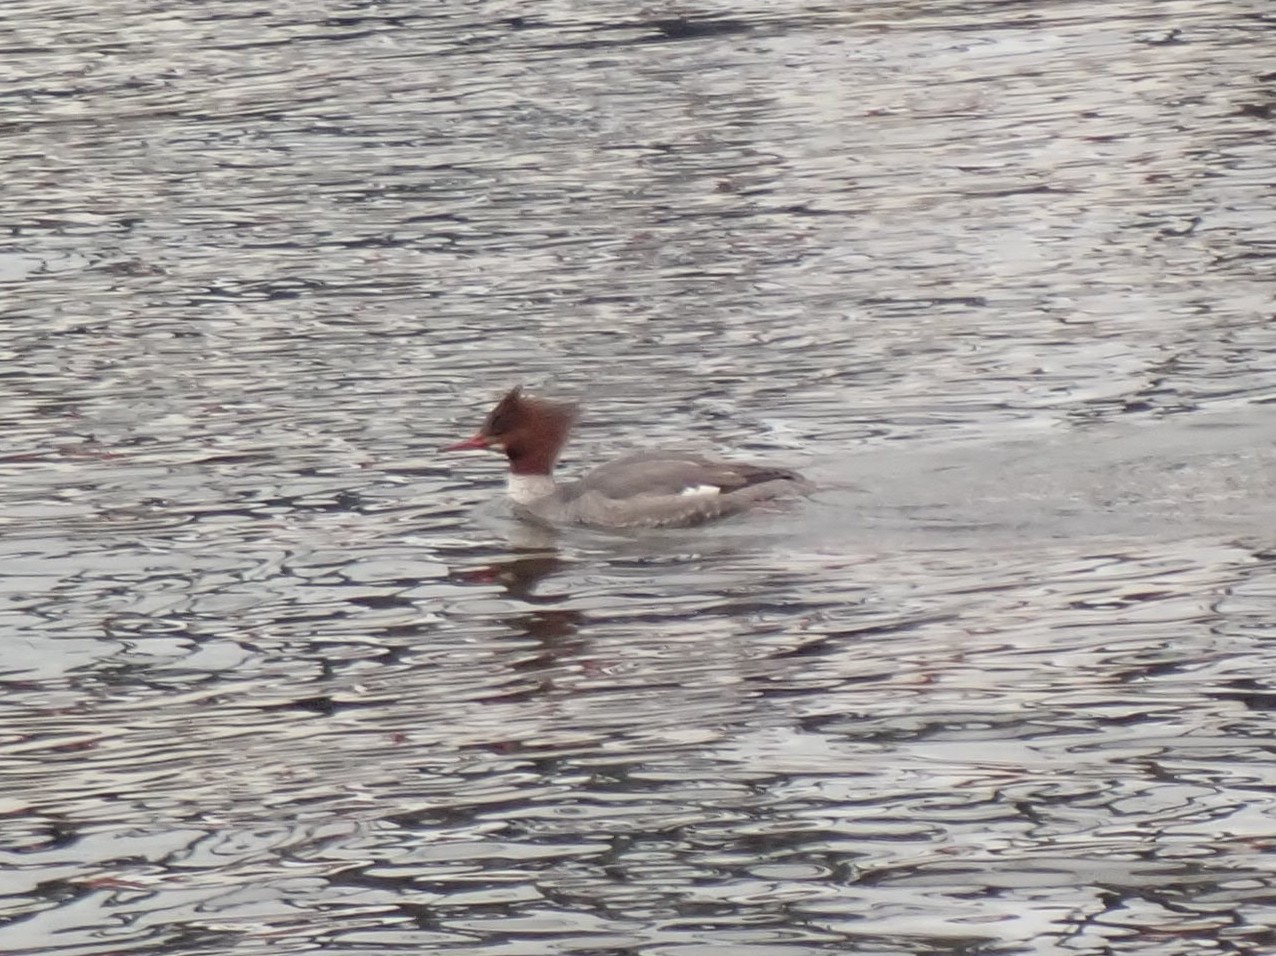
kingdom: Animalia
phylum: Chordata
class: Aves
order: Anseriformes
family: Anatidae
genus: Mergus
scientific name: Mergus merganser
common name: Common merganser
